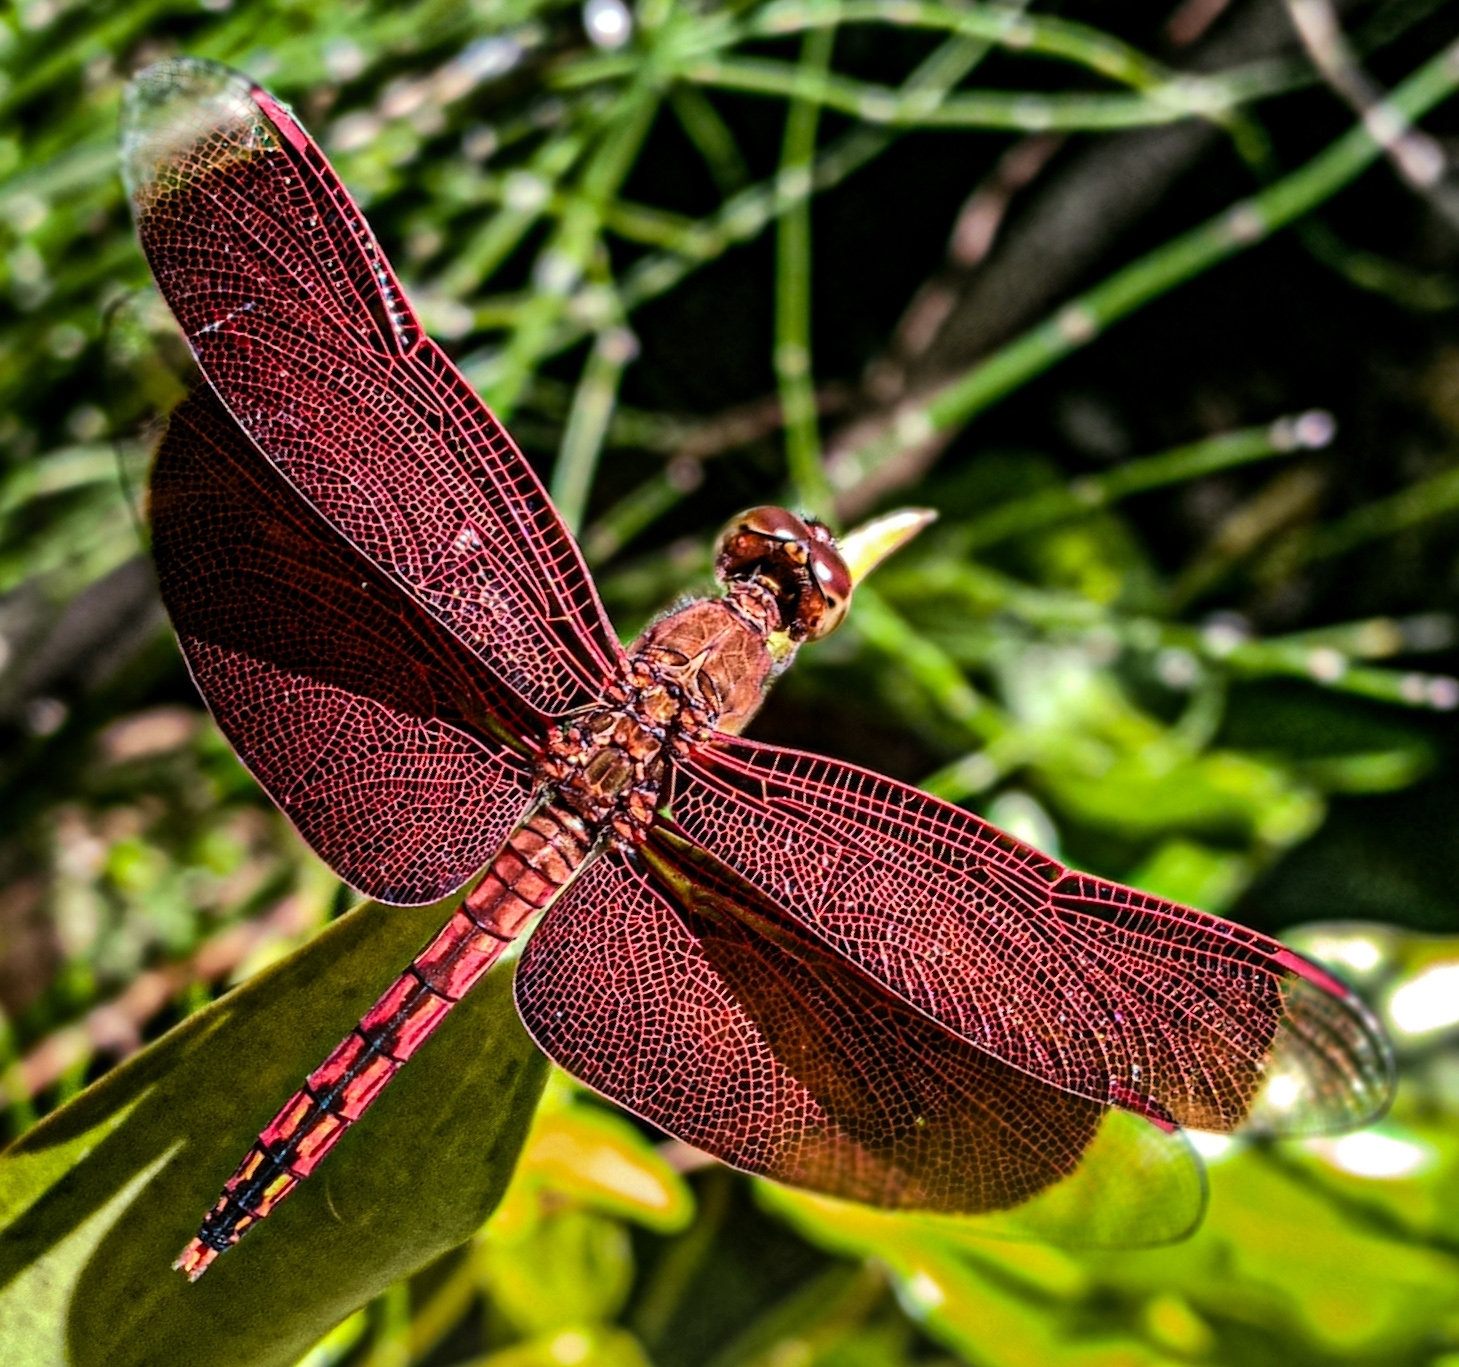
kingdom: Animalia
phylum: Arthropoda
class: Insecta
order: Odonata
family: Libellulidae
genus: Neurothemis
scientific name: Neurothemis ramburii
